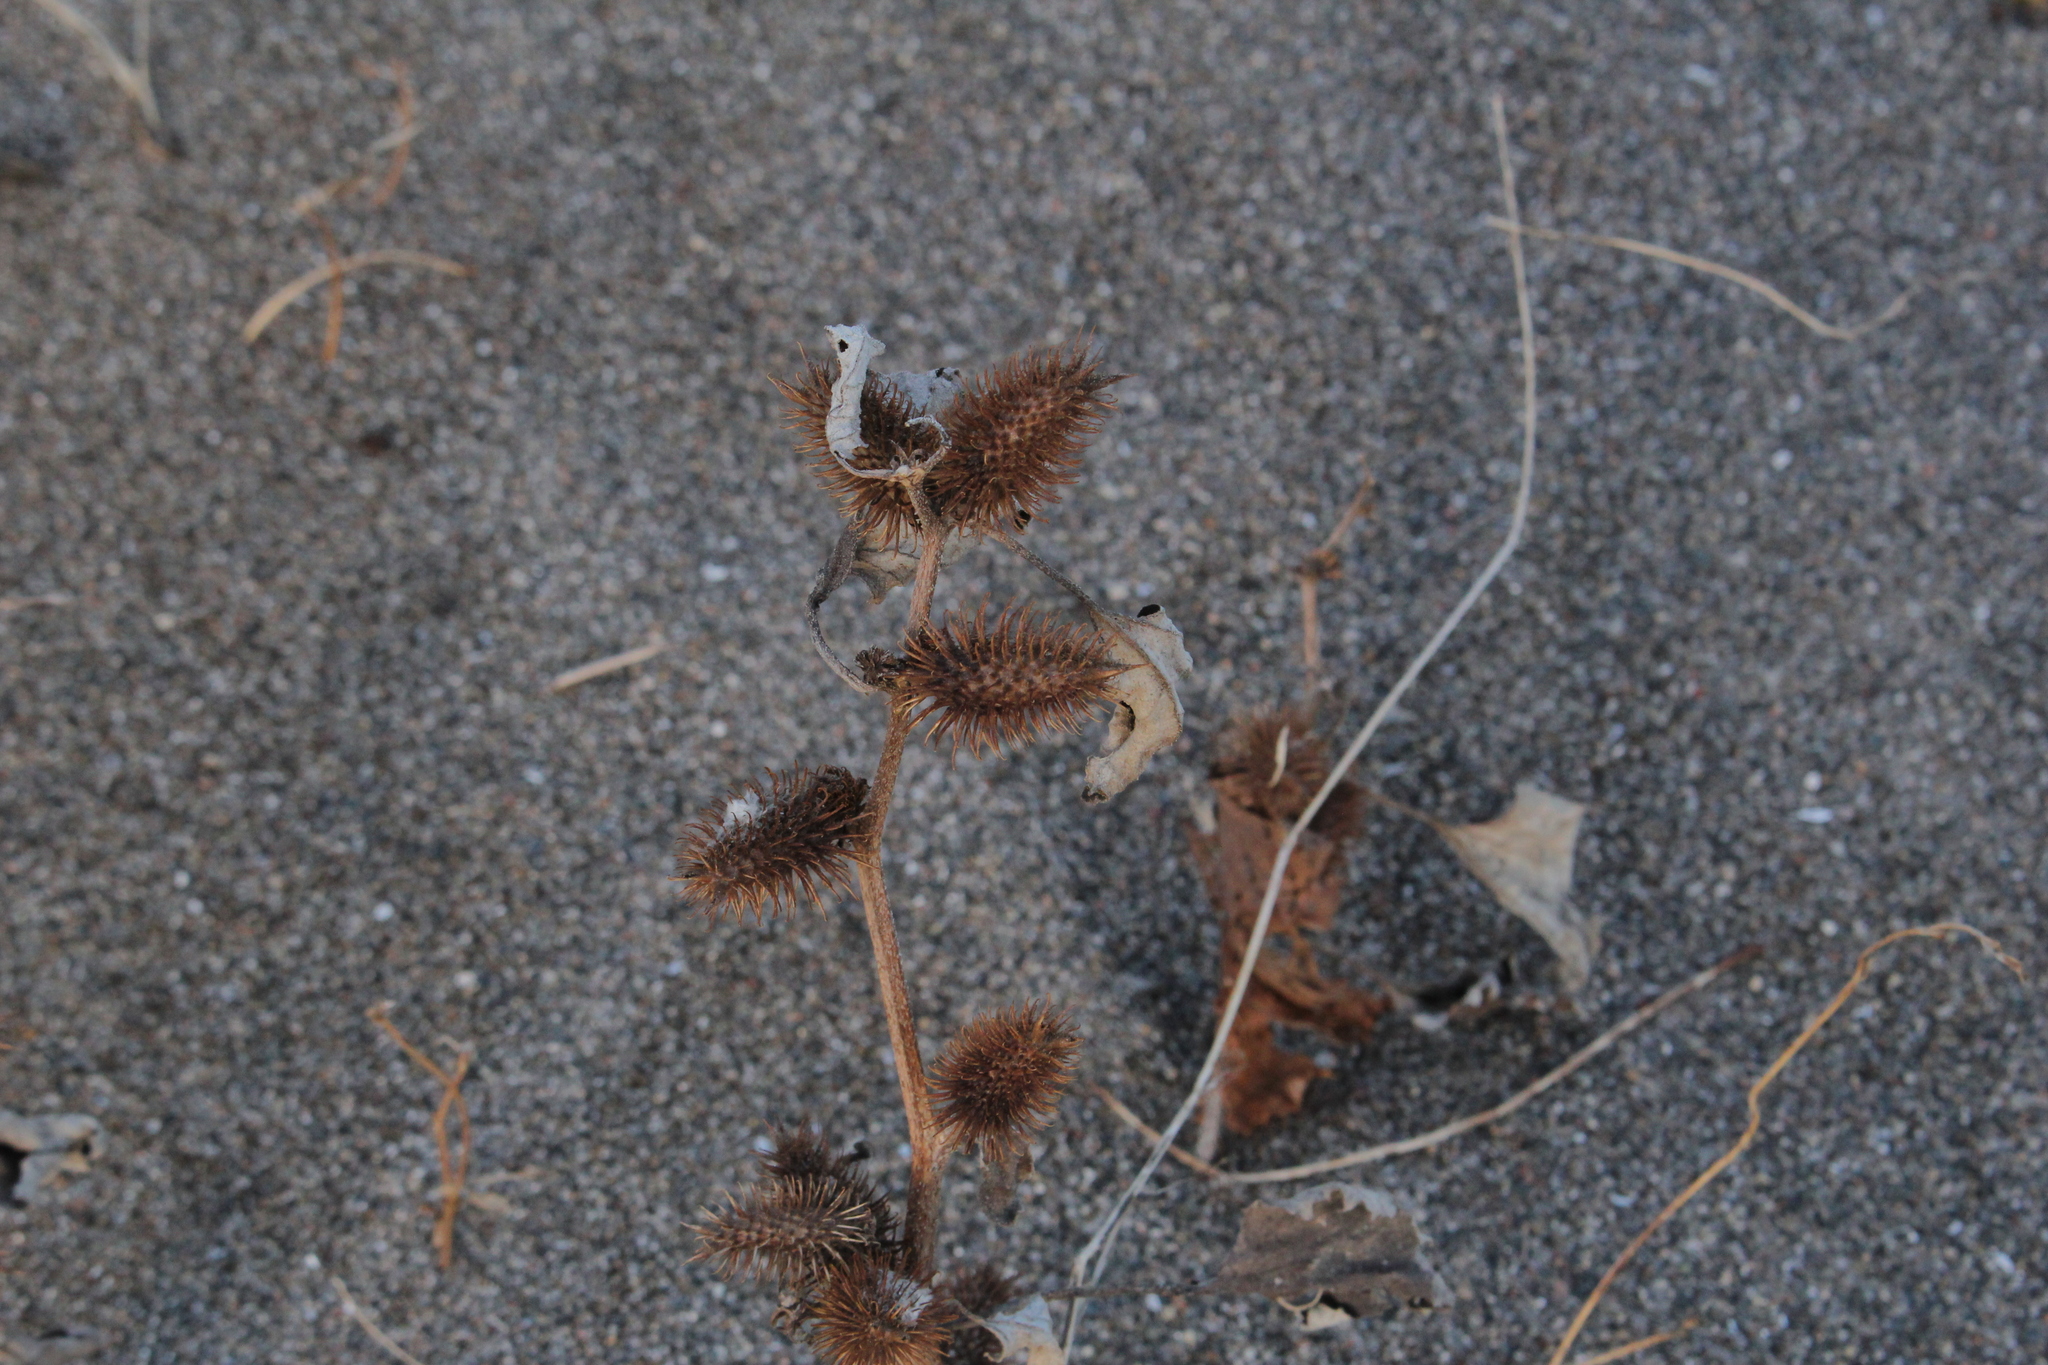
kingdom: Plantae
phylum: Tracheophyta
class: Magnoliopsida
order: Asterales
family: Asteraceae
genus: Xanthium
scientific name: Xanthium strumarium
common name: Rough cocklebur
